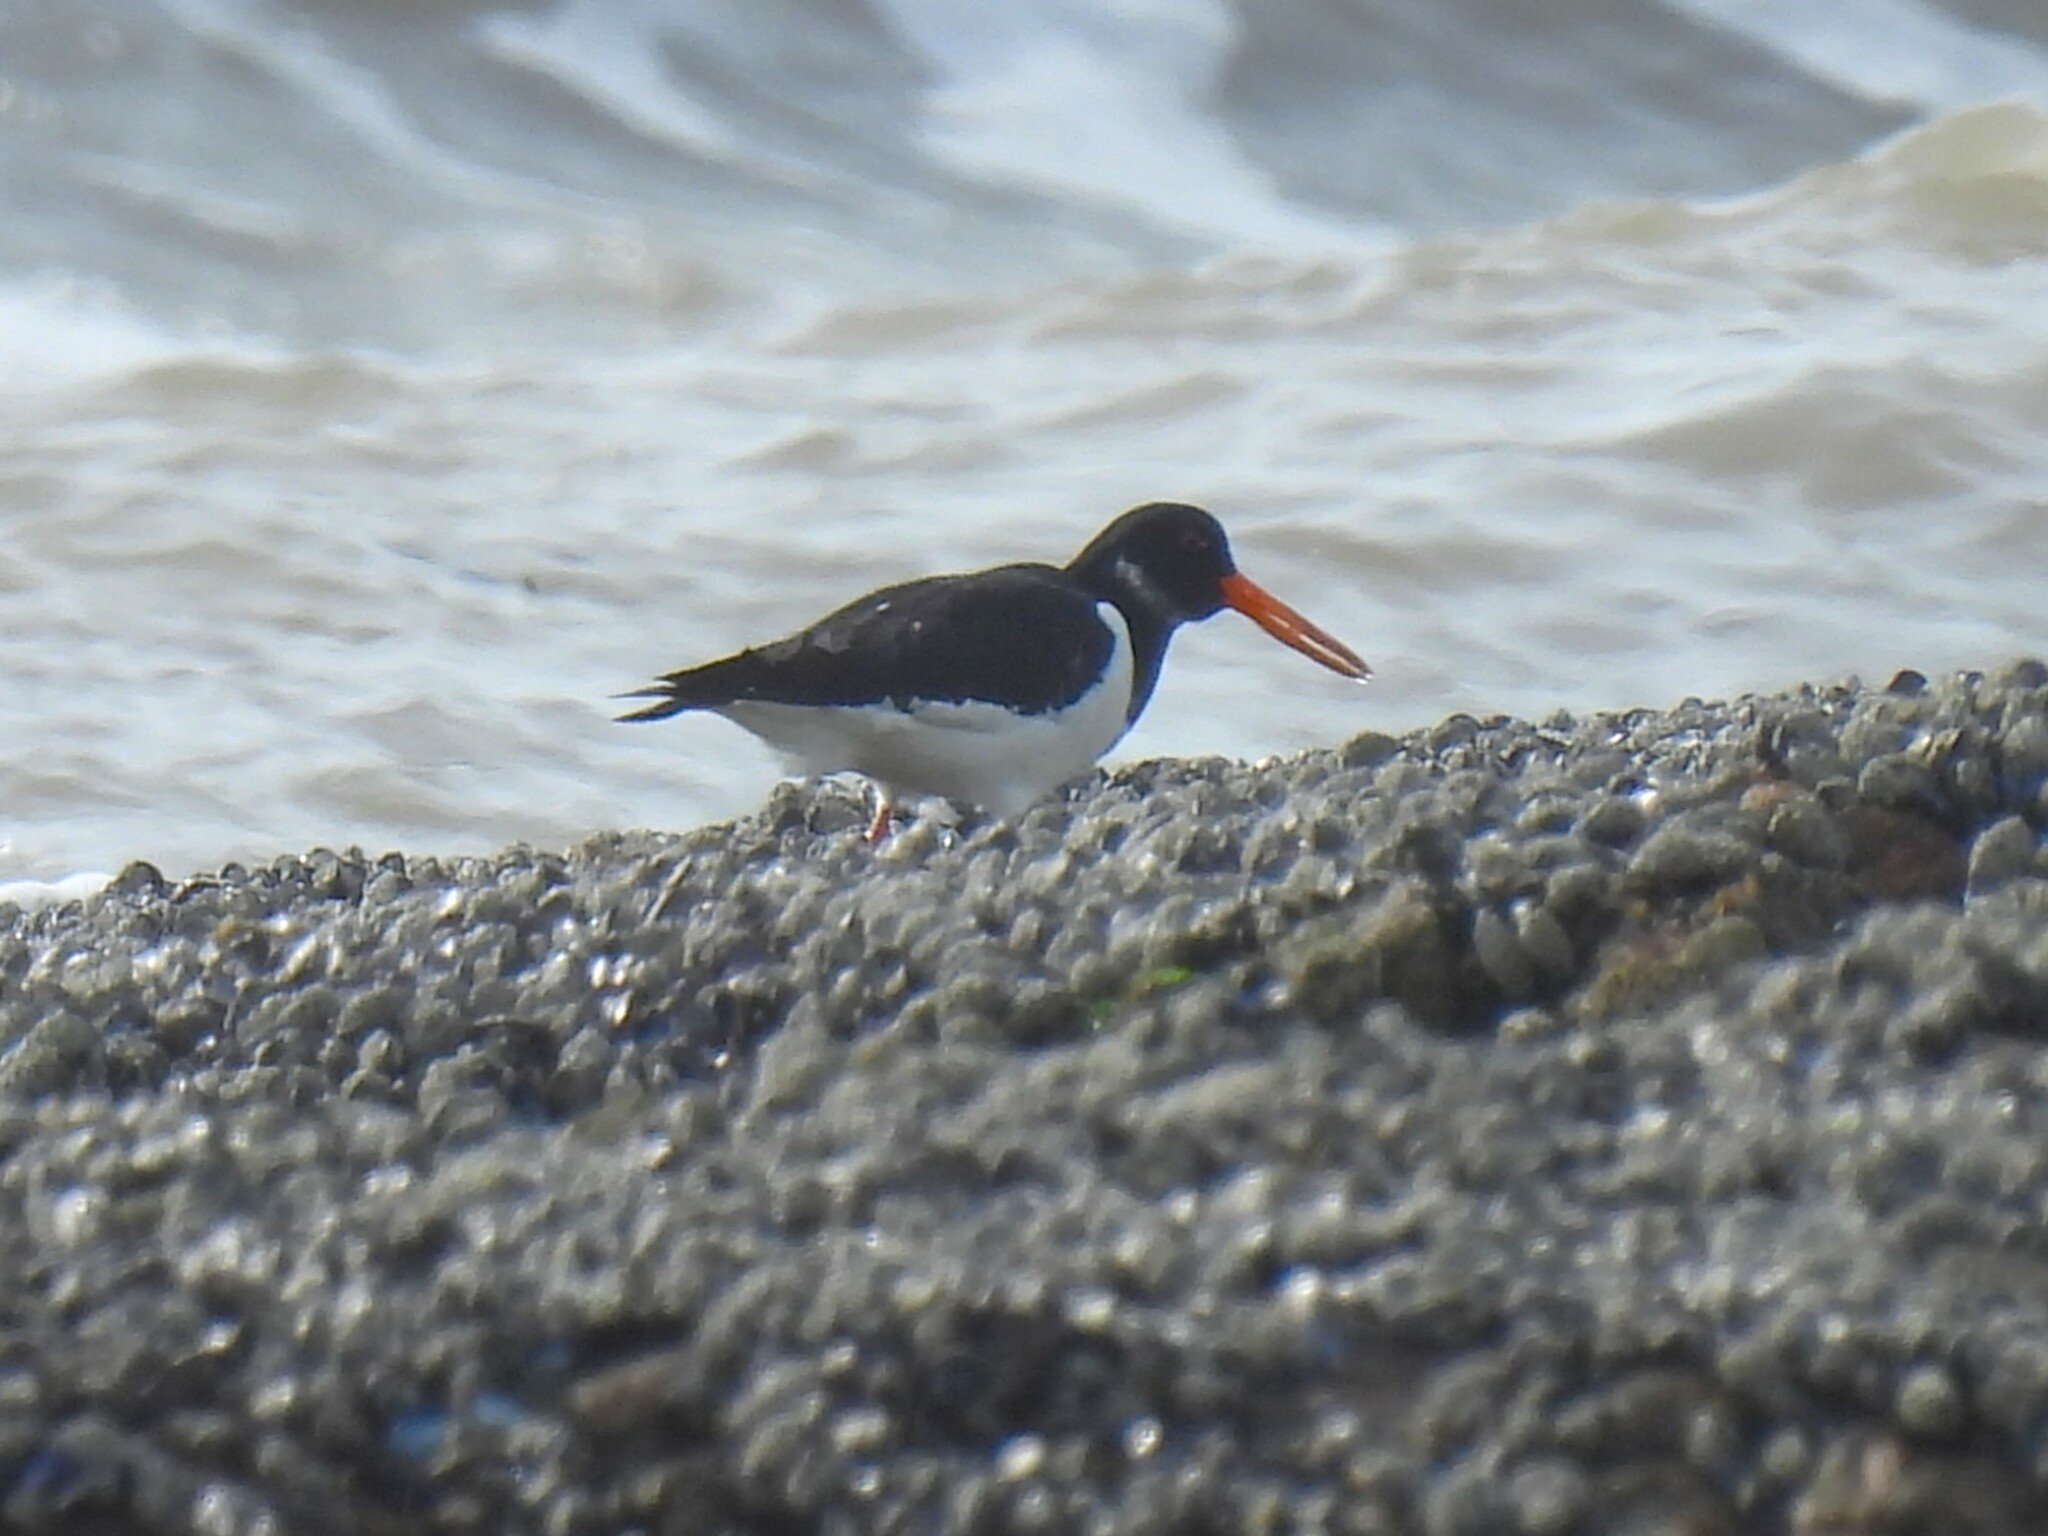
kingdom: Animalia
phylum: Chordata
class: Aves
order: Charadriiformes
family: Haematopodidae
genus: Haematopus
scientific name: Haematopus ostralegus
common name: Eurasian oystercatcher
